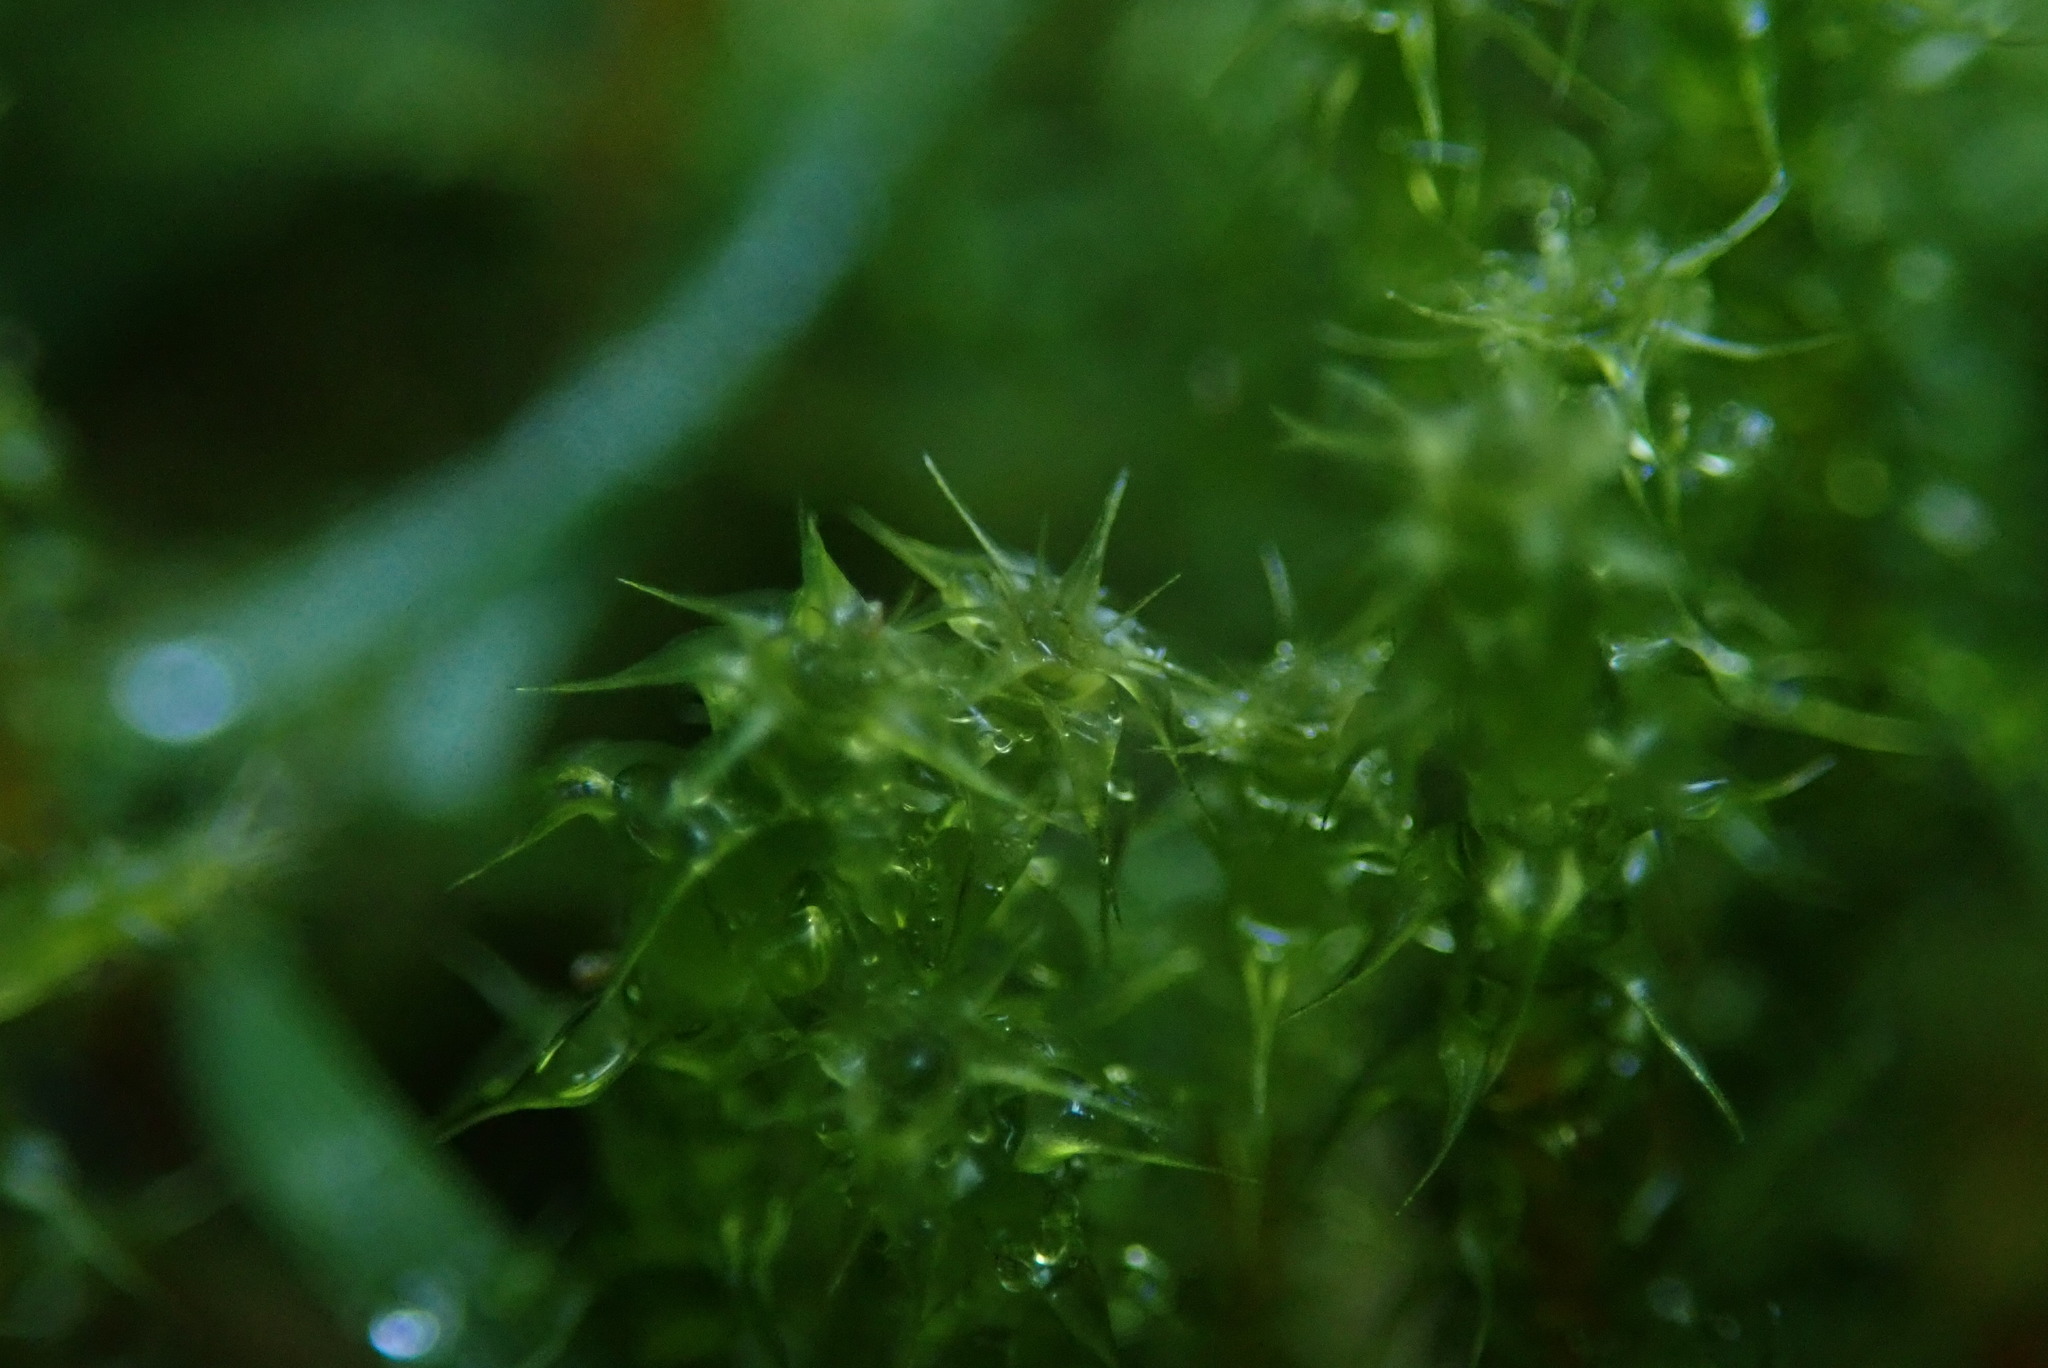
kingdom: Plantae
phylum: Bryophyta
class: Bryopsida
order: Hypnales
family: Hylocomiaceae
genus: Rhytidiadelphus
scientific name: Rhytidiadelphus squarrosus
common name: Springy turf-moss
